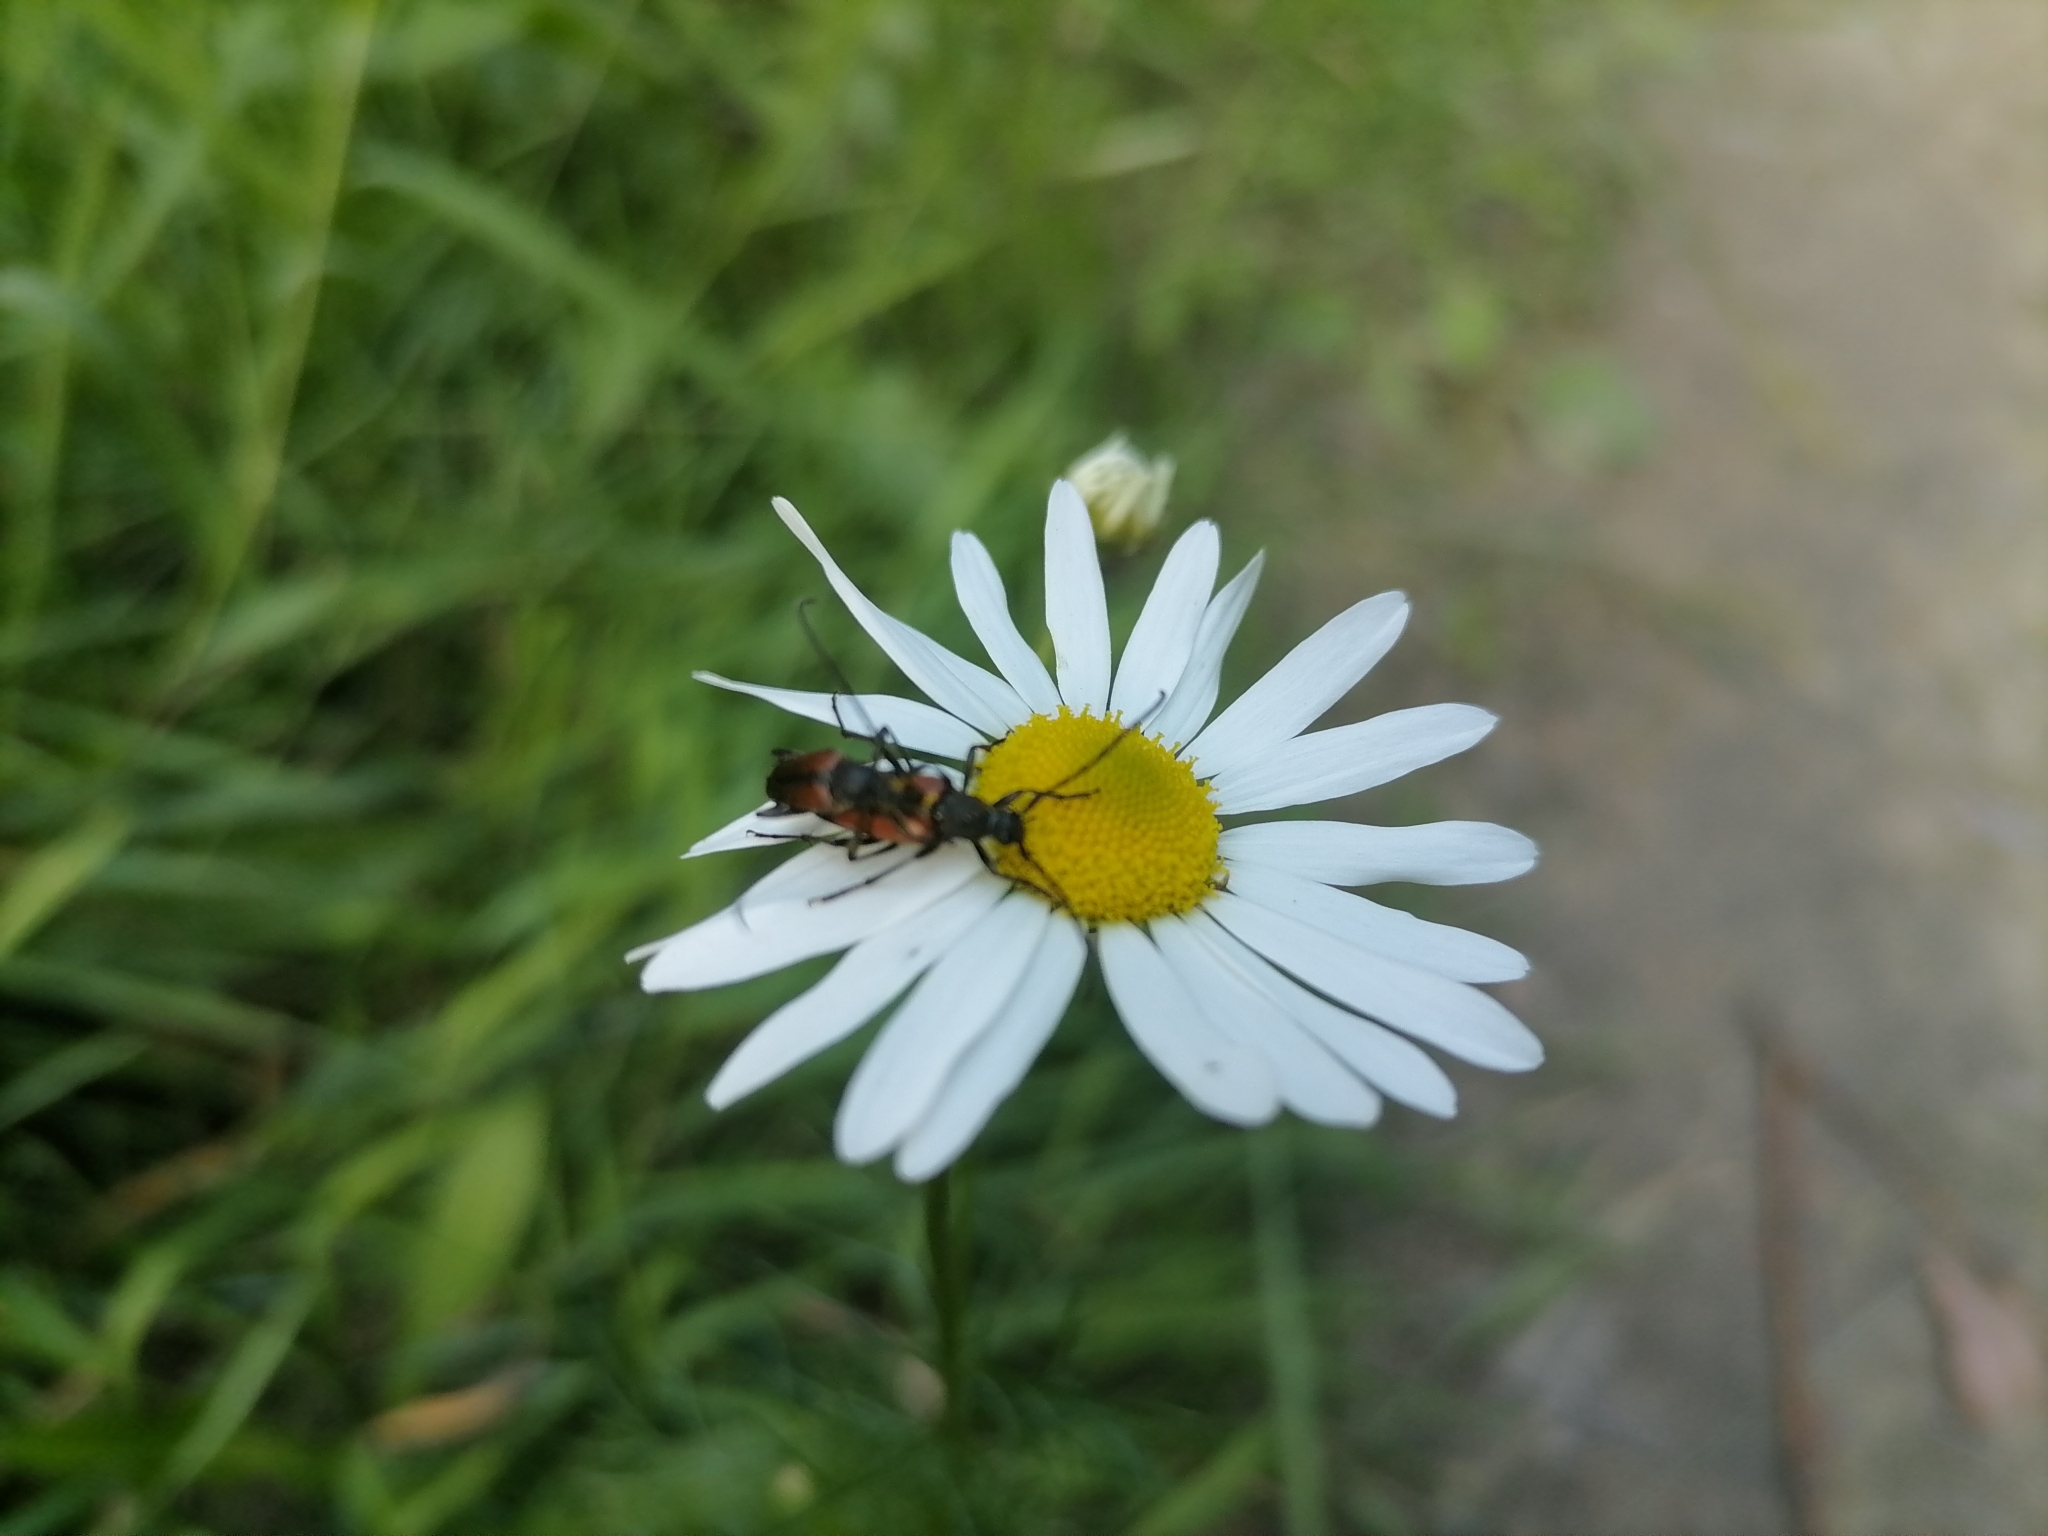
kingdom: Animalia
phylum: Arthropoda
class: Insecta
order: Coleoptera
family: Cerambycidae
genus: Stenurella
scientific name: Stenurella melanura
